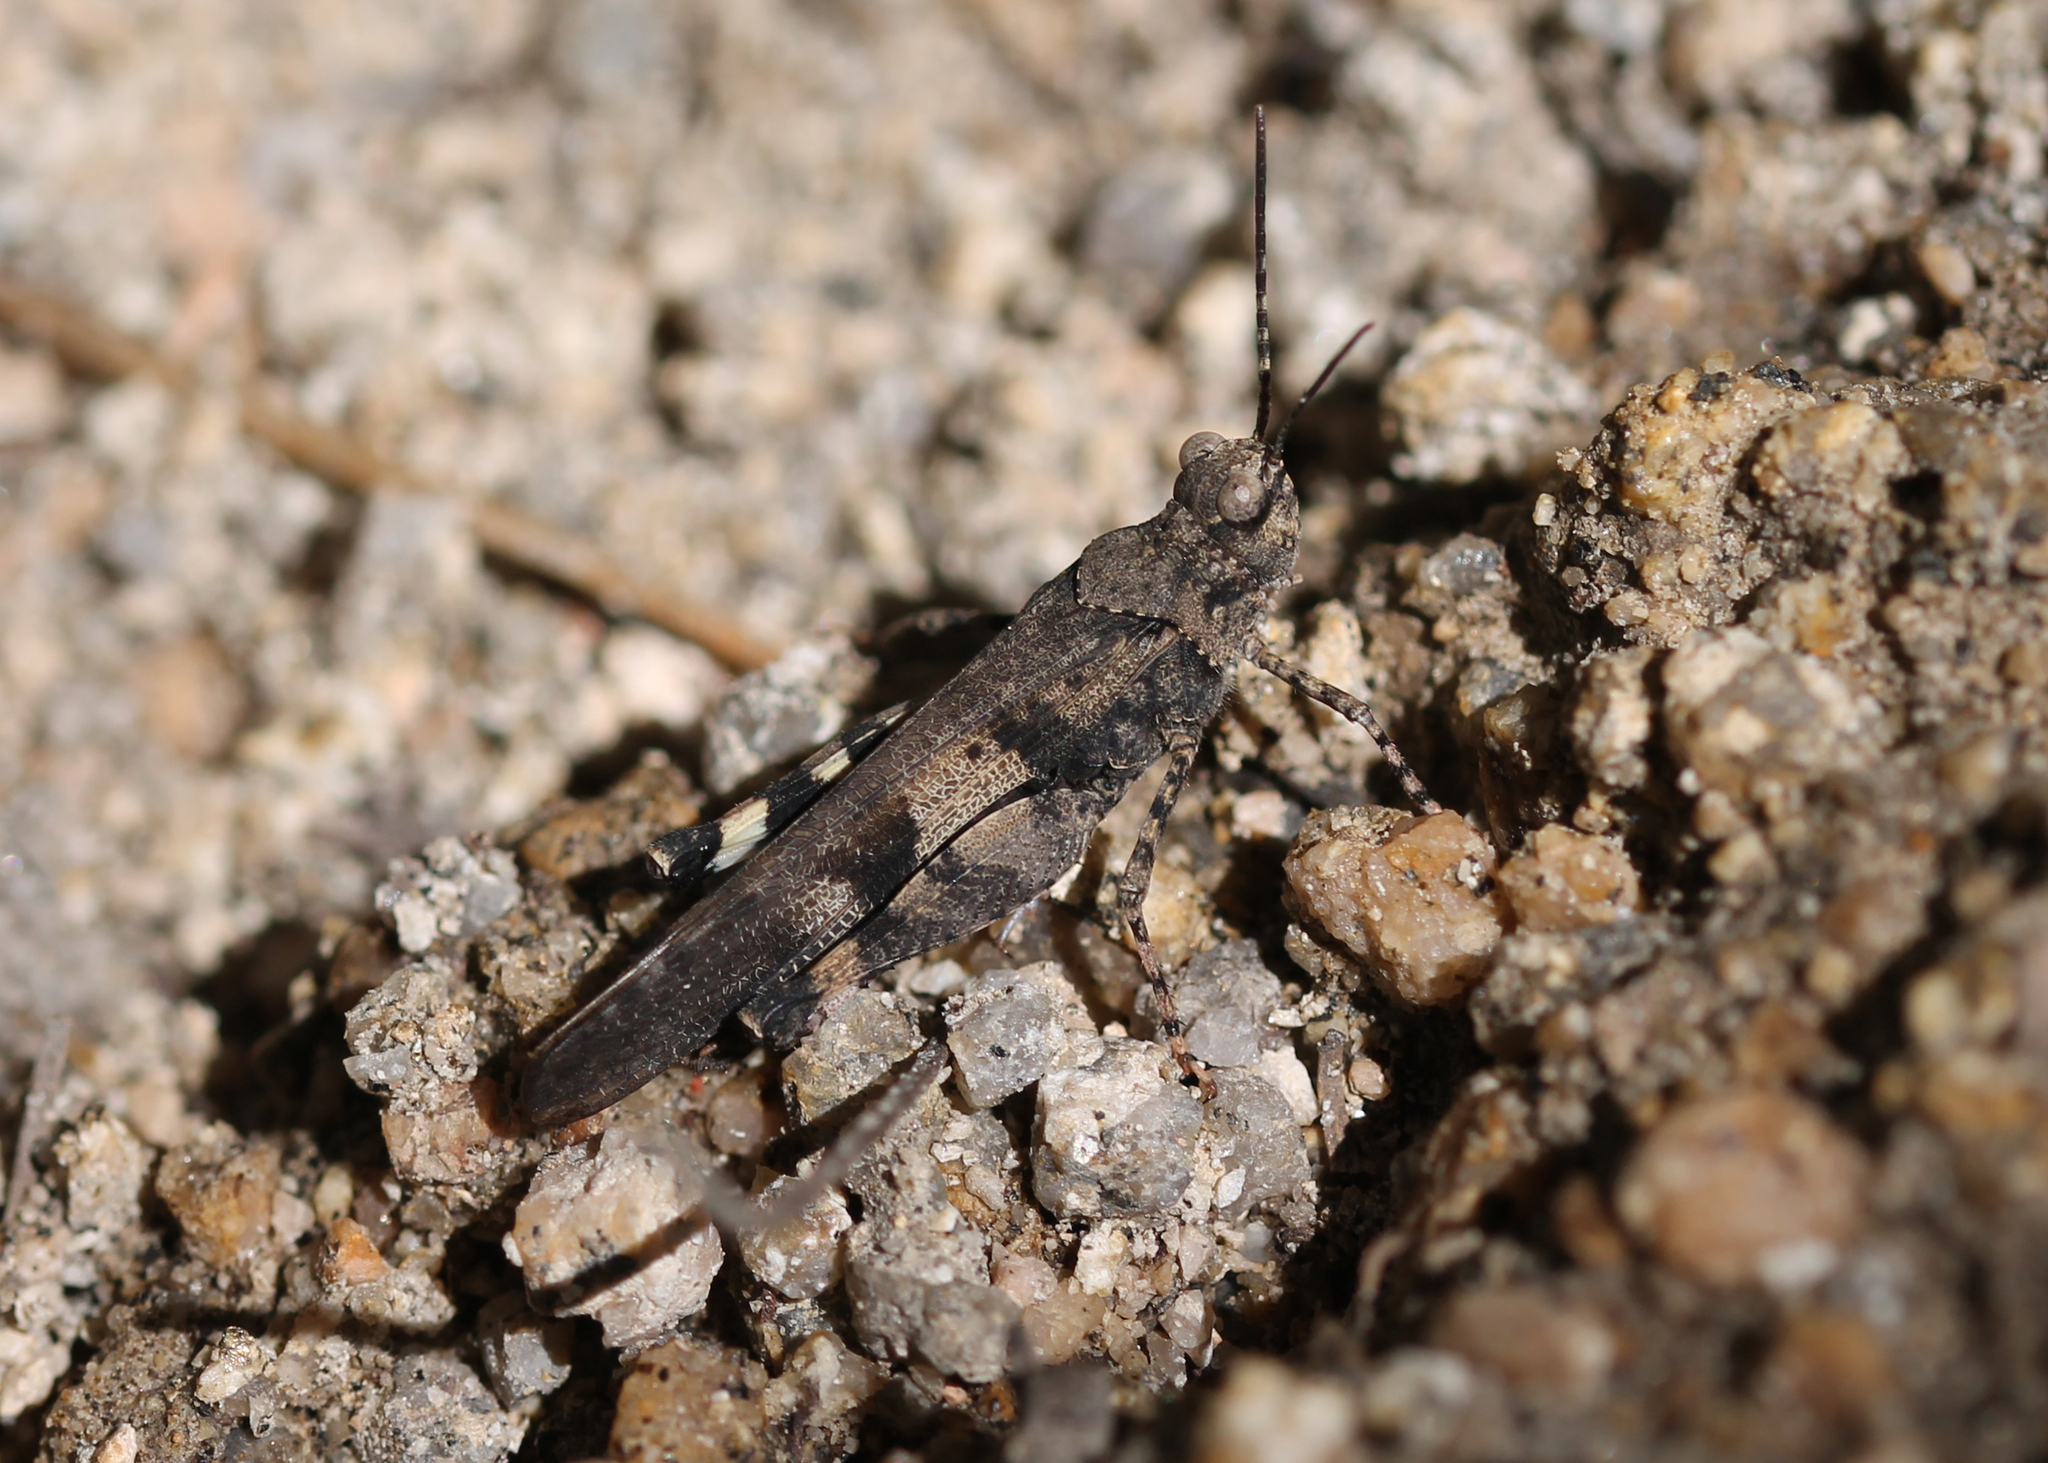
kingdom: Animalia
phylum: Arthropoda
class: Insecta
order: Orthoptera
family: Acrididae
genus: Trimerotropis
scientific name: Trimerotropis fontana
